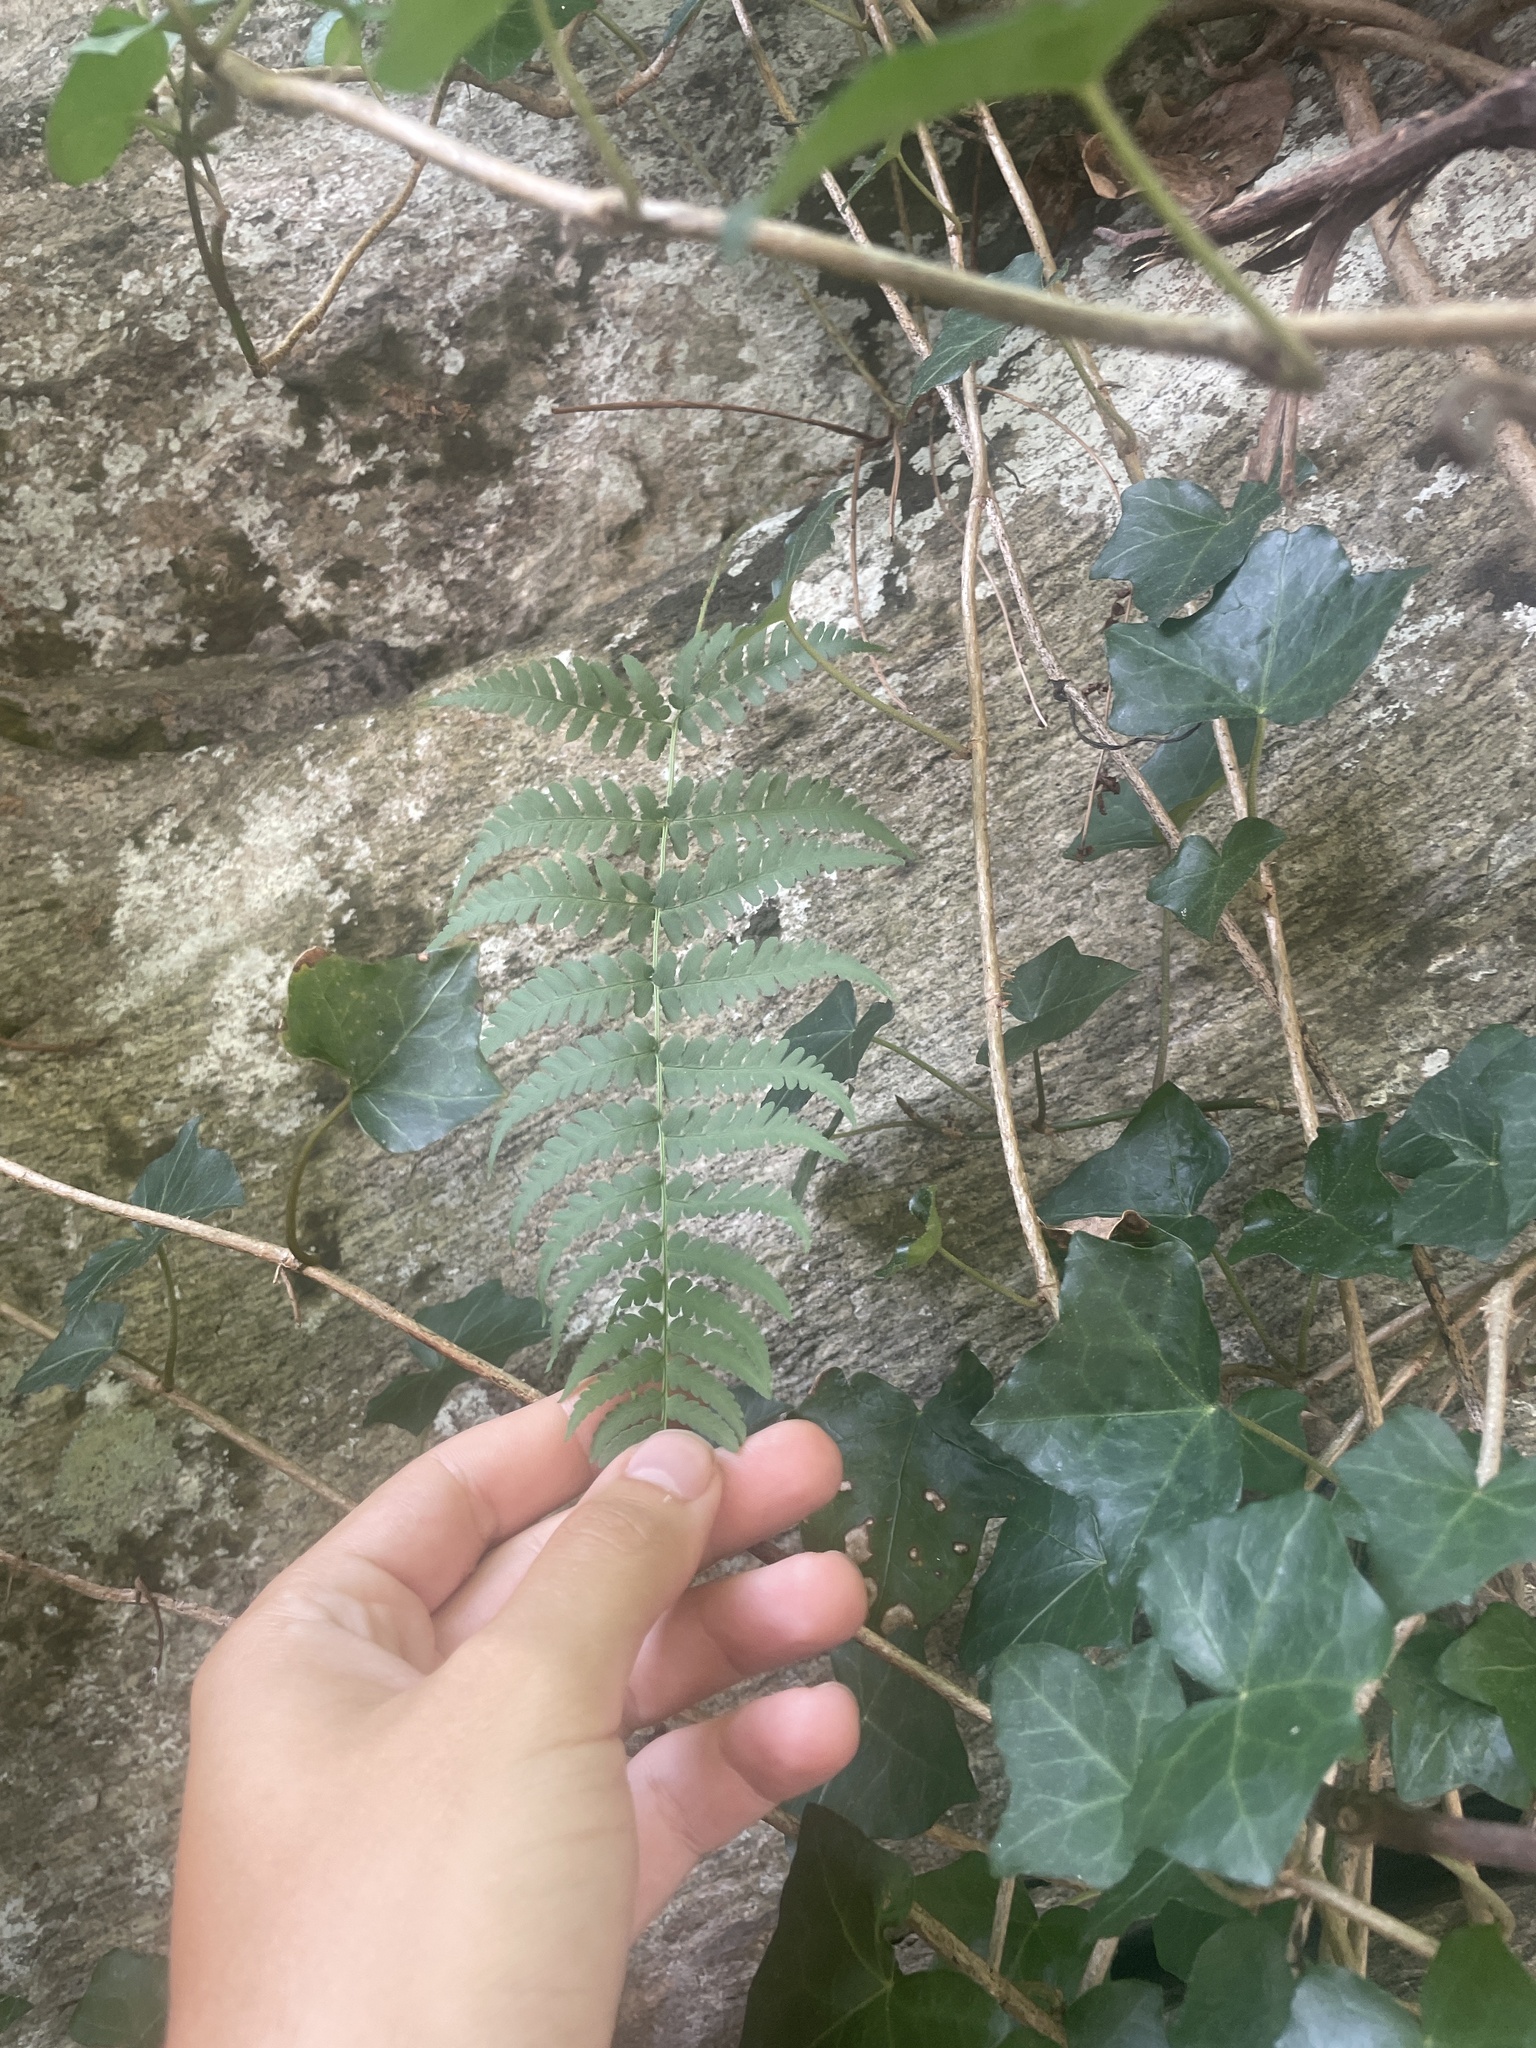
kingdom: Plantae
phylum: Tracheophyta
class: Polypodiopsida
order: Polypodiales
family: Dryopteridaceae
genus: Dryopteris
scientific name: Dryopteris marginalis
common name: Marginal wood fern
